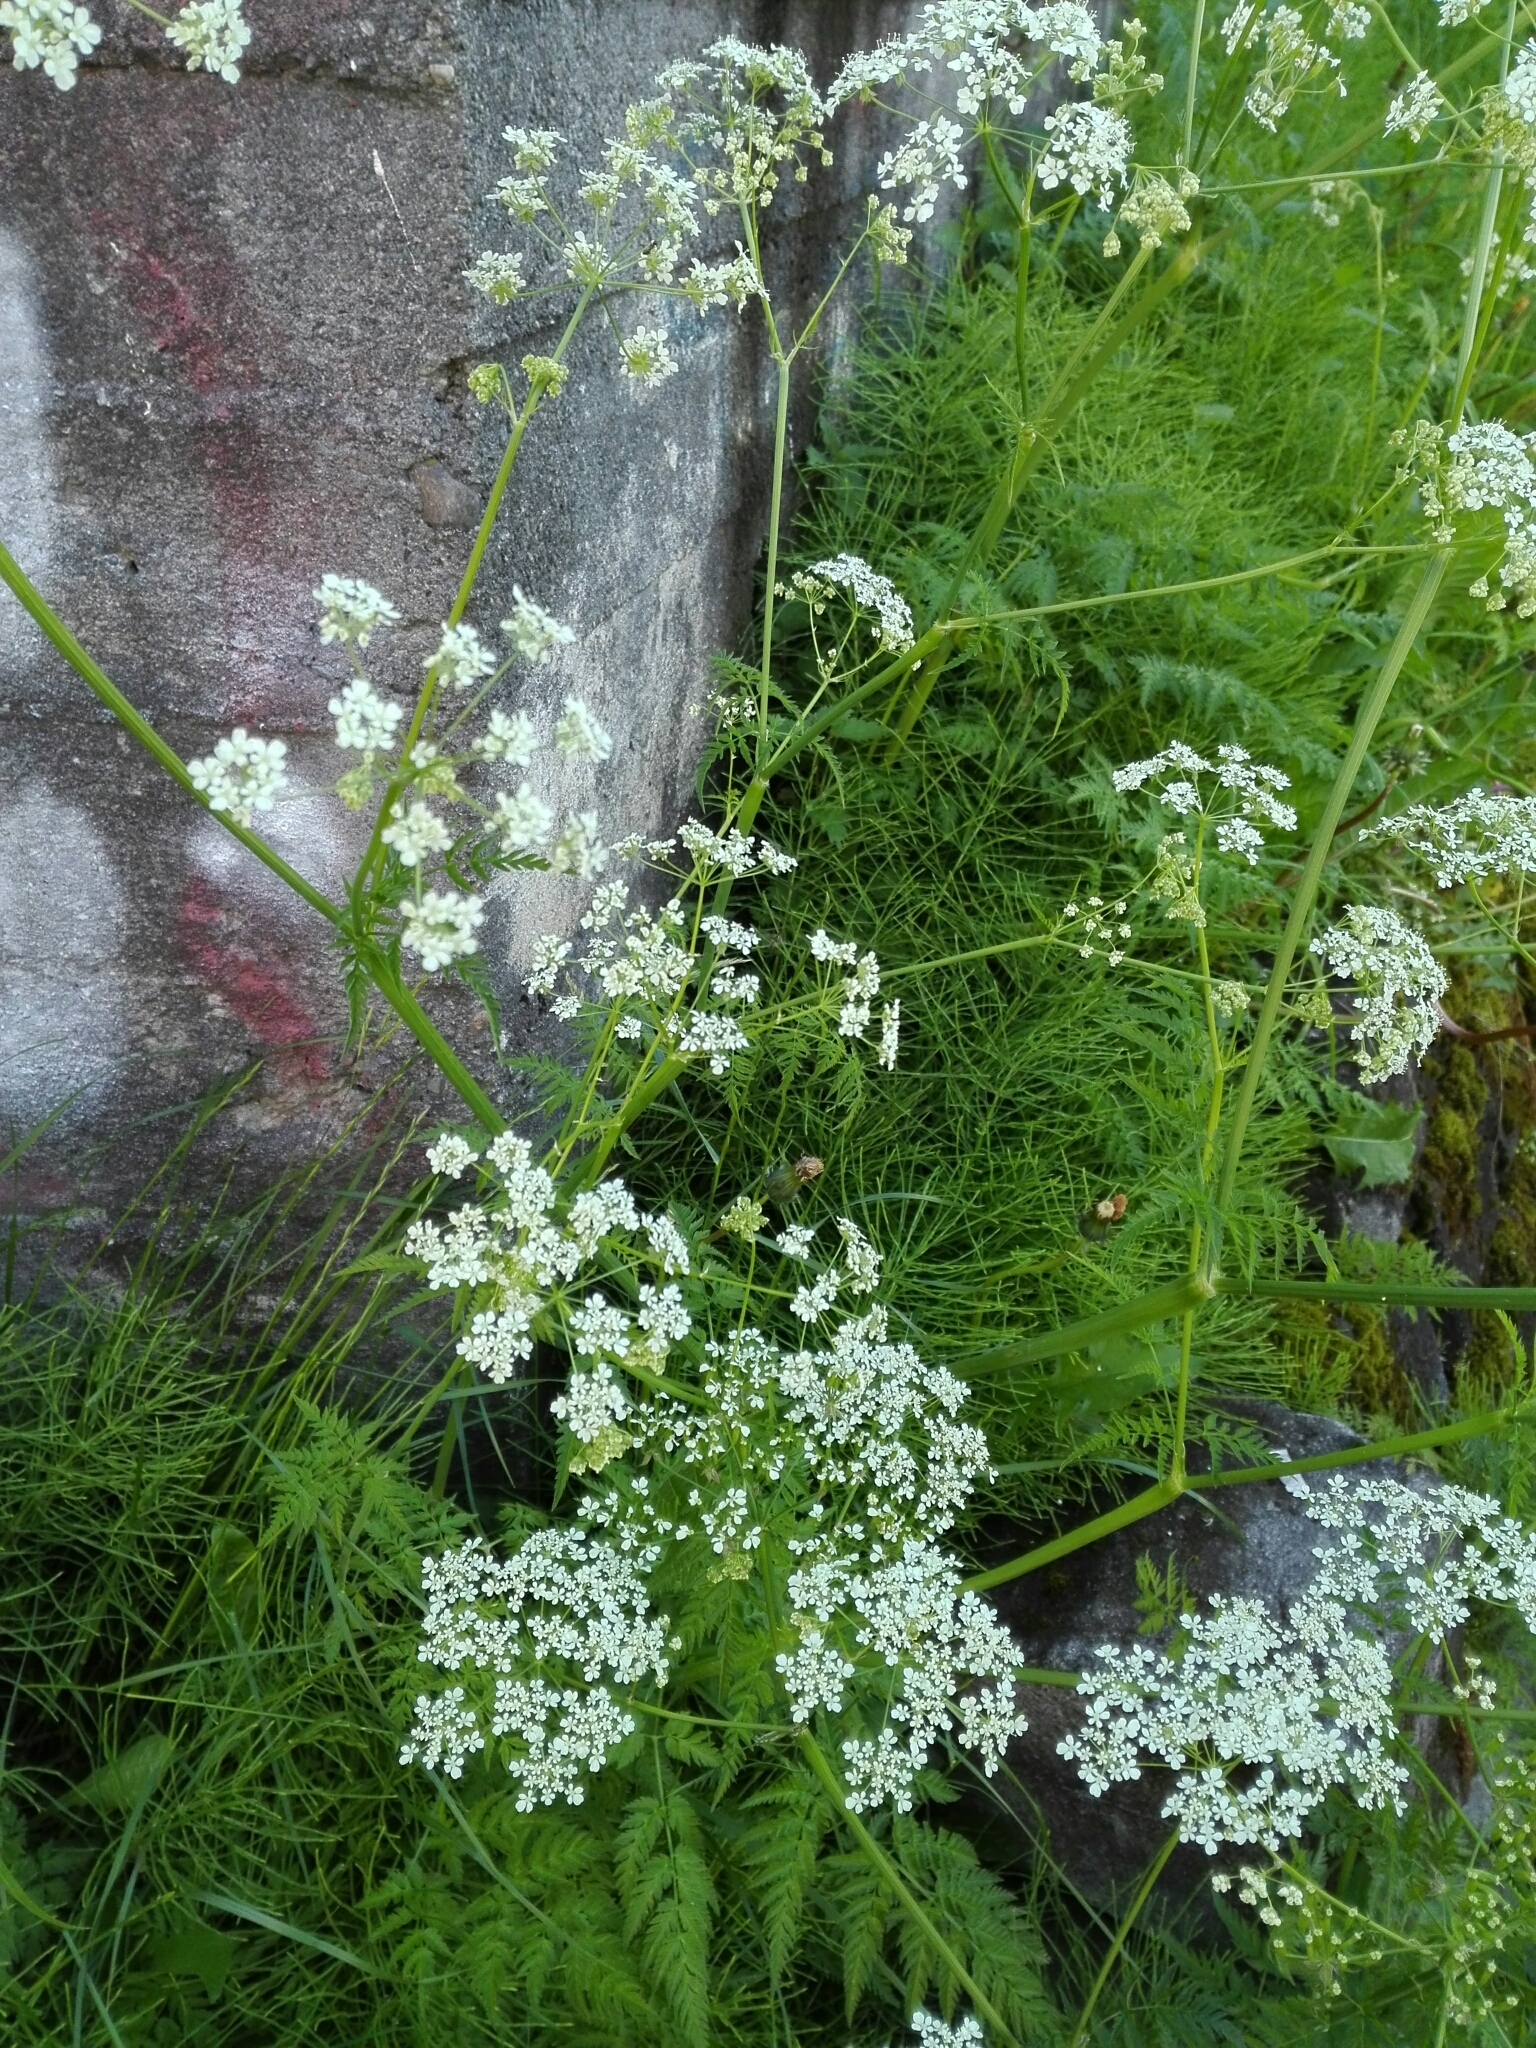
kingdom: Plantae
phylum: Tracheophyta
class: Magnoliopsida
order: Apiales
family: Apiaceae
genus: Anthriscus
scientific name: Anthriscus sylvestris
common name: Cow parsley
